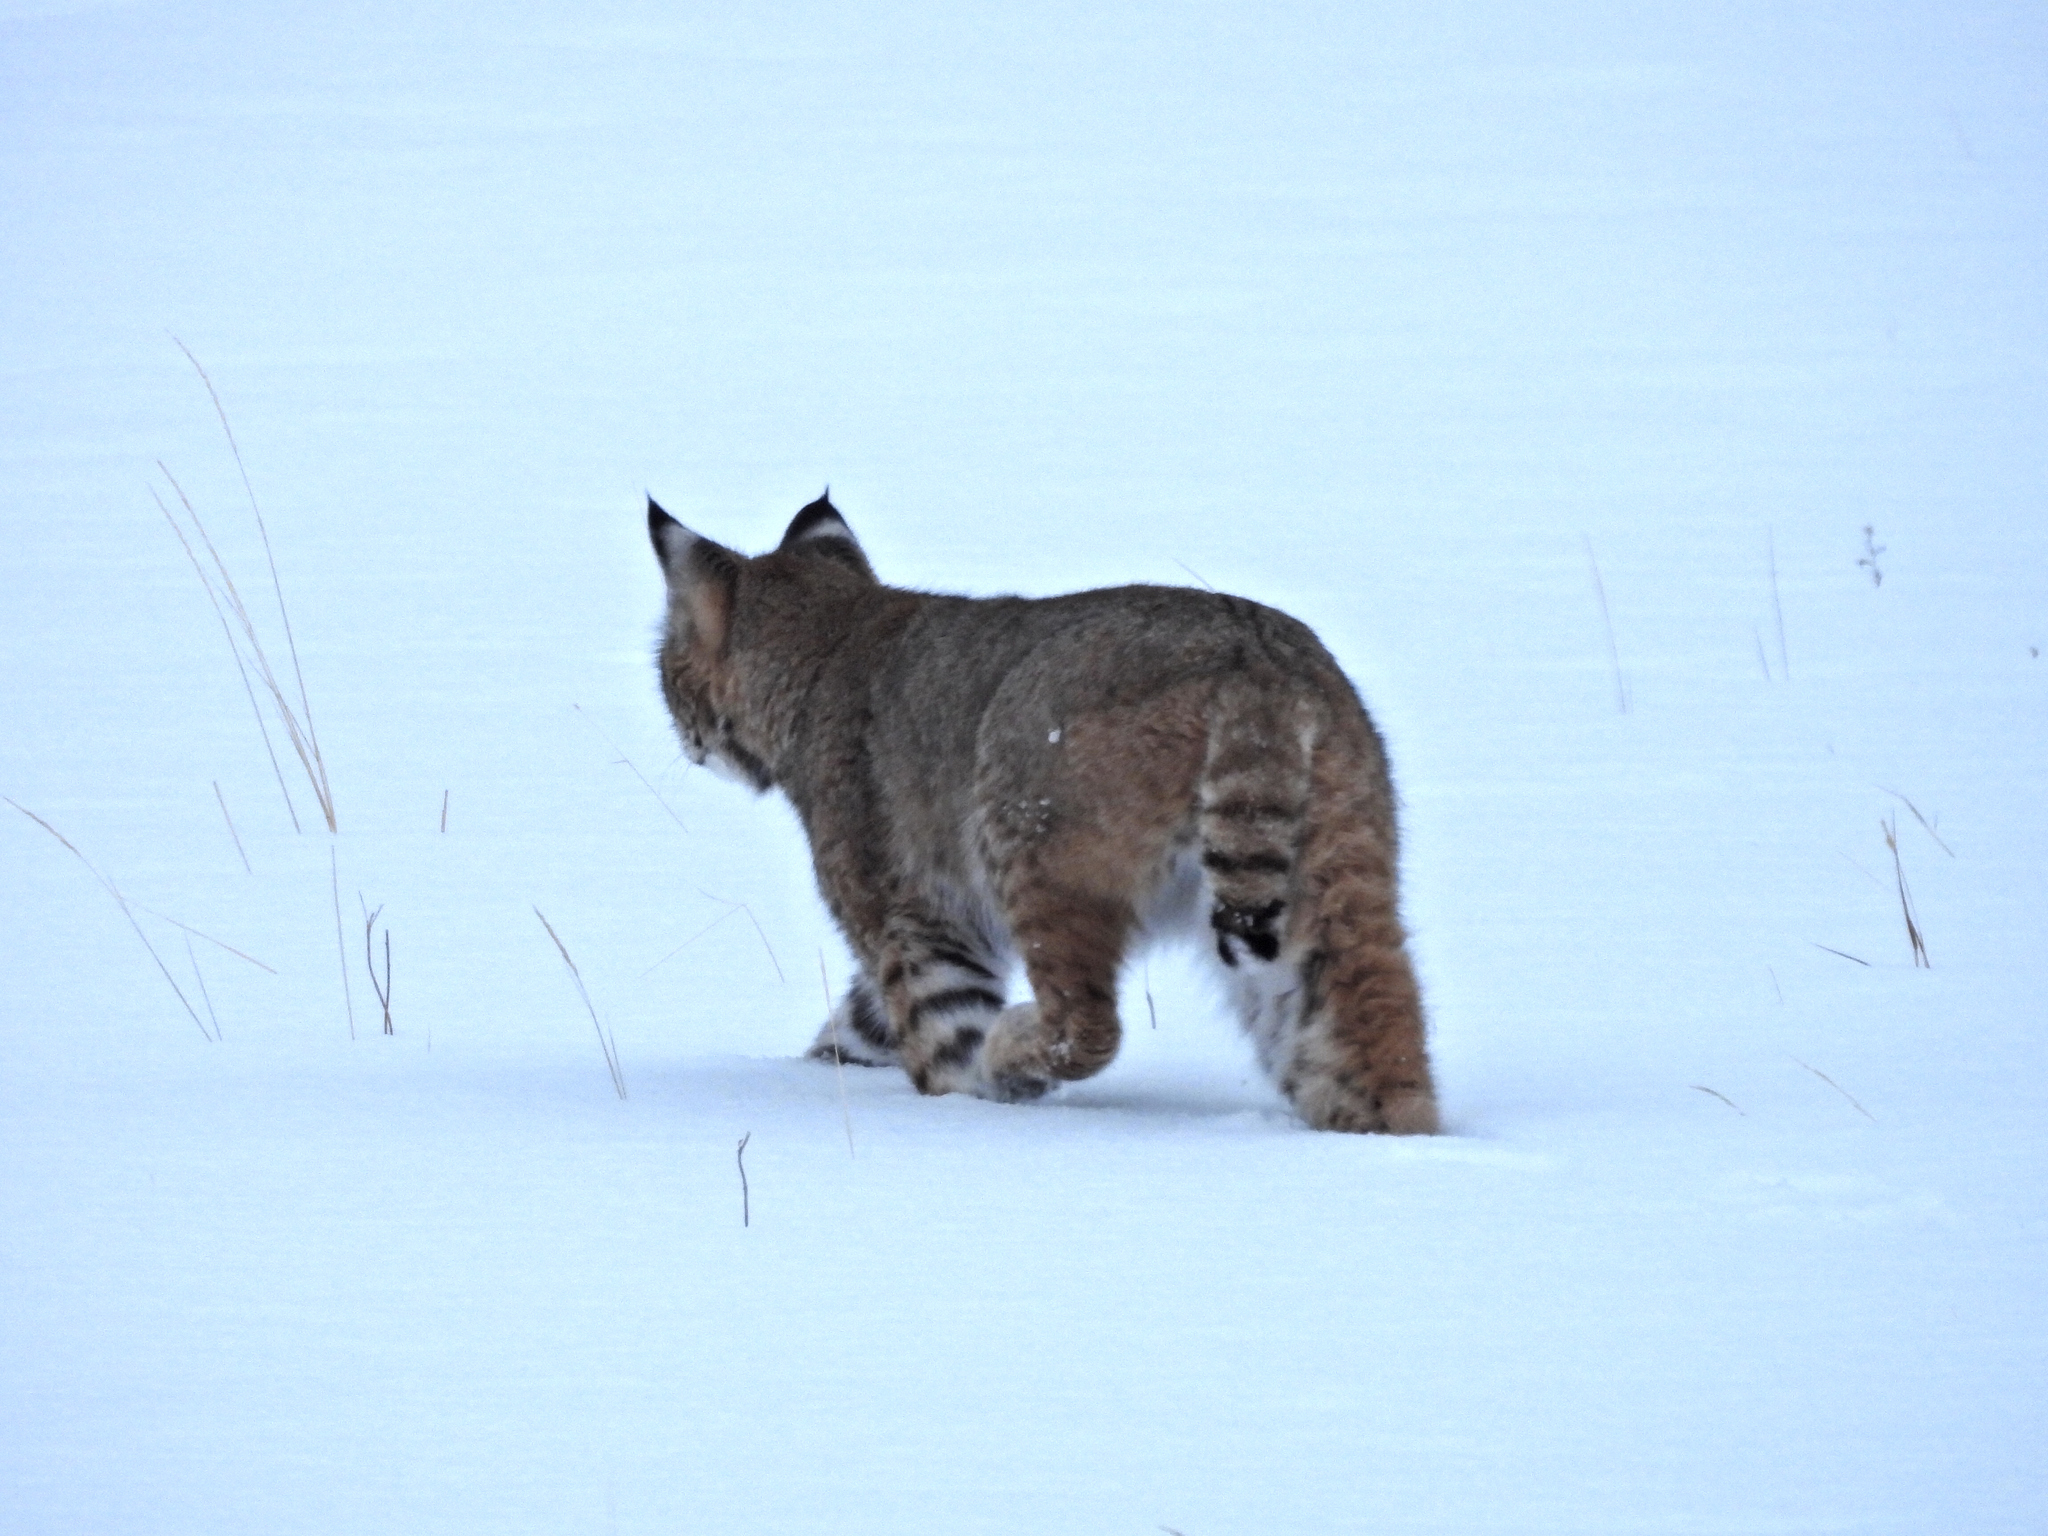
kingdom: Animalia
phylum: Chordata
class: Mammalia
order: Carnivora
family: Felidae
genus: Lynx
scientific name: Lynx rufus
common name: Bobcat
